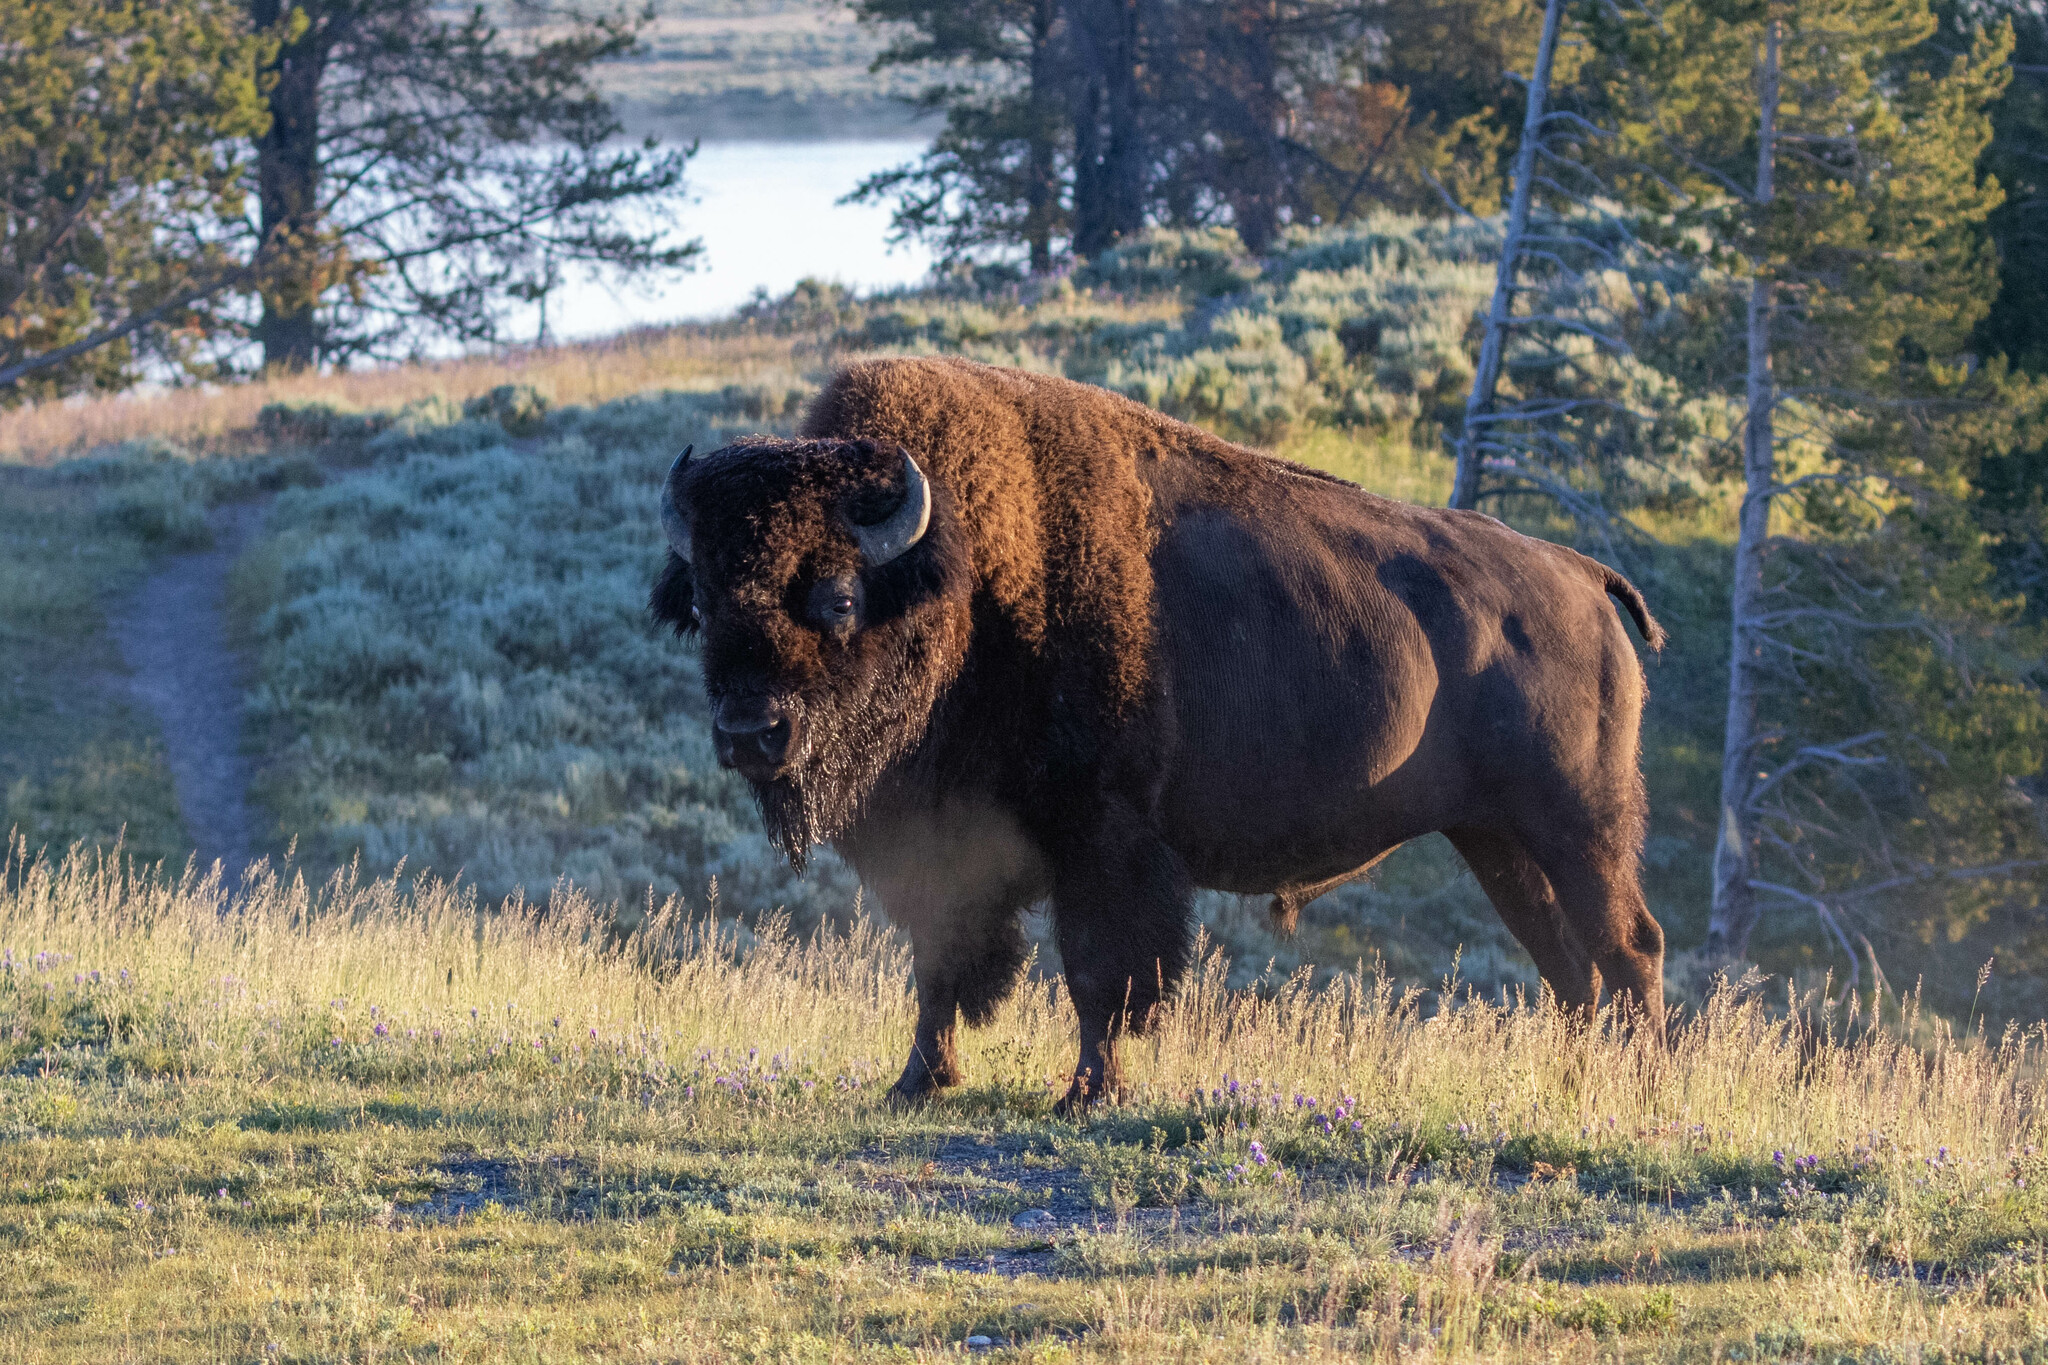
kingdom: Animalia
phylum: Chordata
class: Mammalia
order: Artiodactyla
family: Bovidae
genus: Bison
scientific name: Bison bison
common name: American bison
